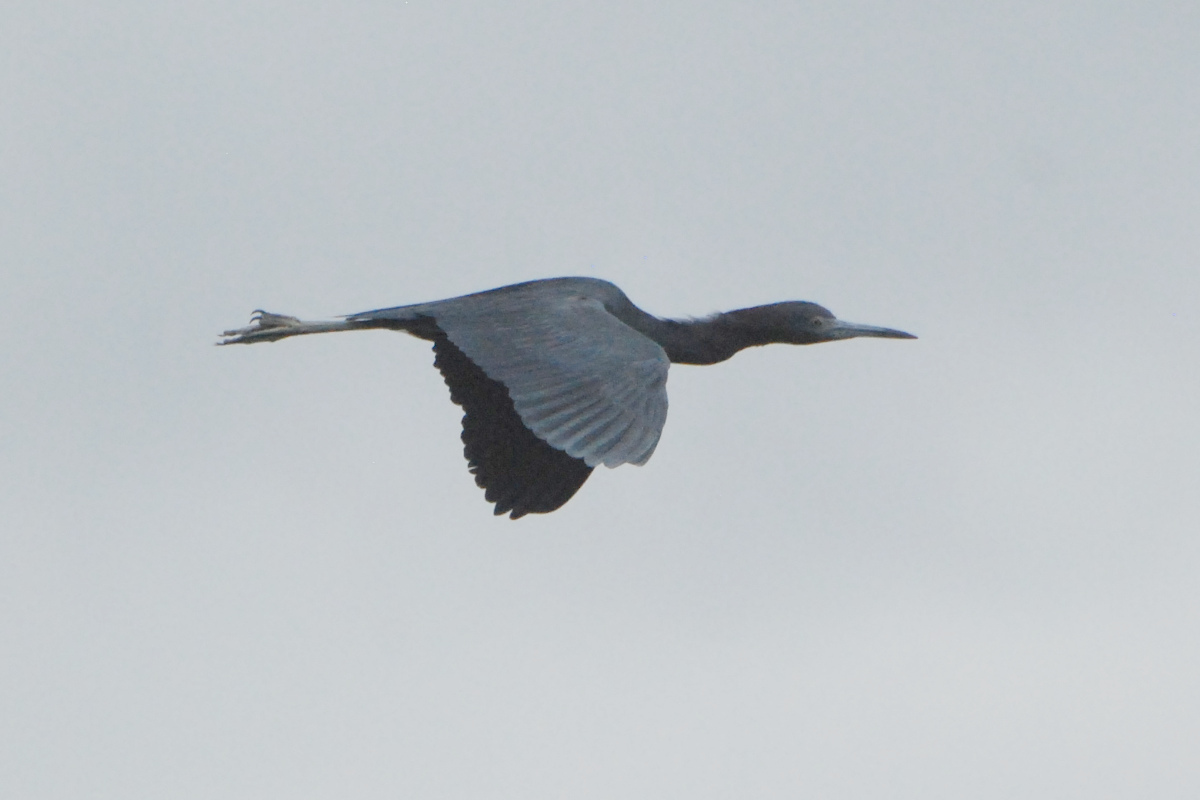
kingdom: Animalia
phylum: Chordata
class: Aves
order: Pelecaniformes
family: Ardeidae
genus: Egretta
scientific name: Egretta caerulea
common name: Little blue heron
